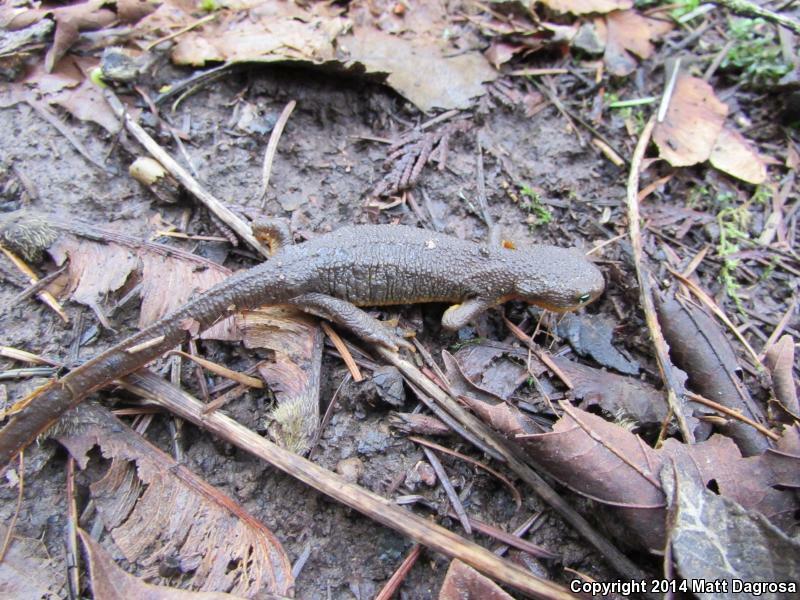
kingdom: Animalia
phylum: Chordata
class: Amphibia
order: Caudata
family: Salamandridae
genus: Taricha
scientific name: Taricha granulosa
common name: Roughskin newt
